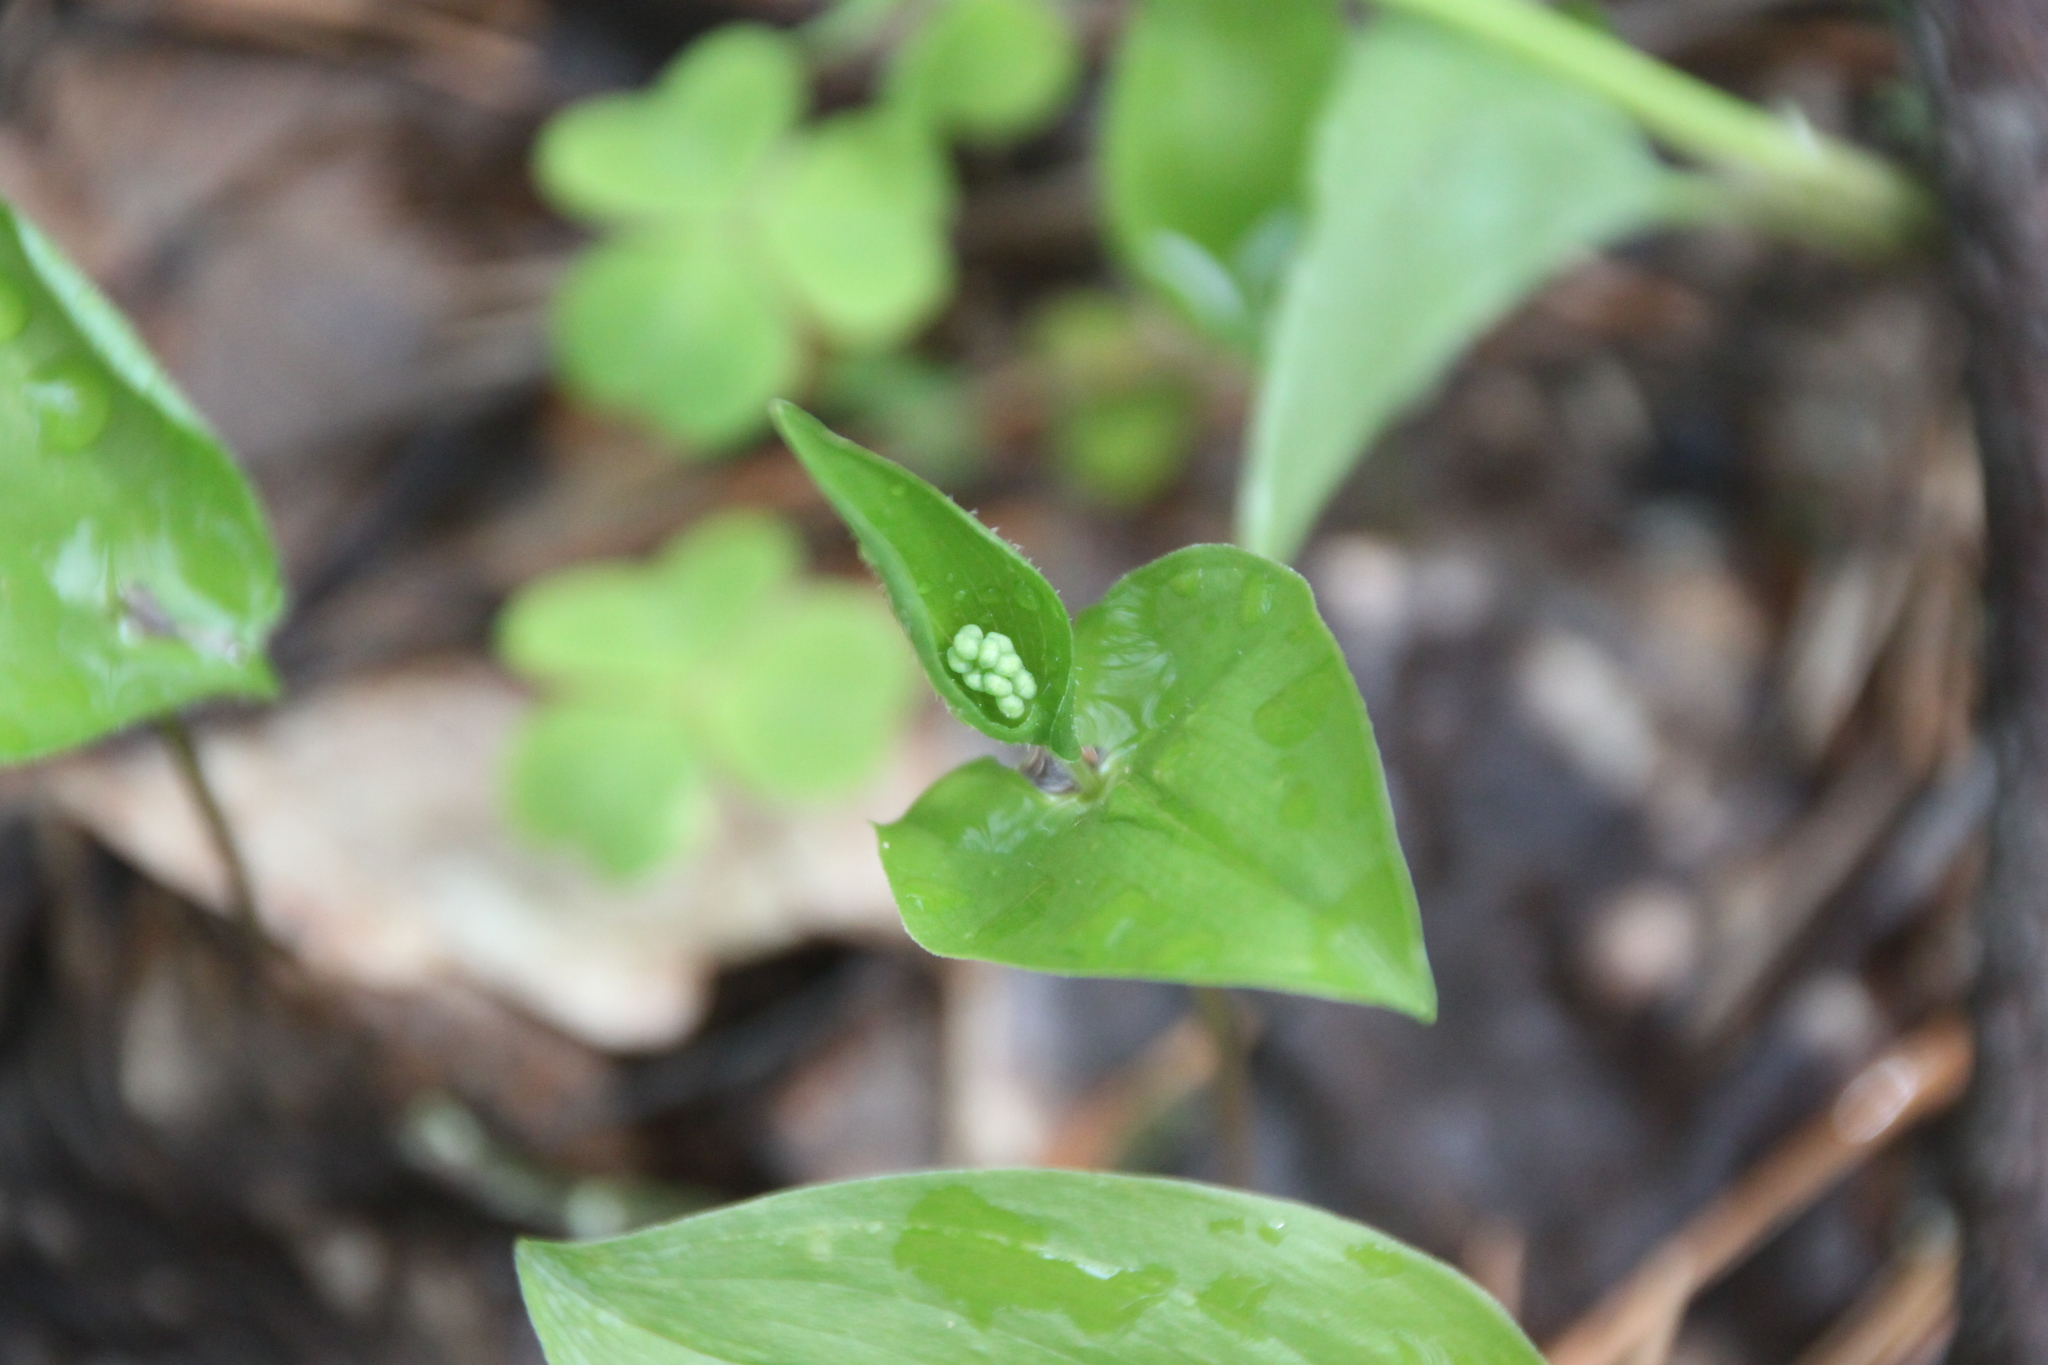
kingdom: Plantae
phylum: Tracheophyta
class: Liliopsida
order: Asparagales
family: Asparagaceae
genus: Maianthemum
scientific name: Maianthemum bifolium
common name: May lily
